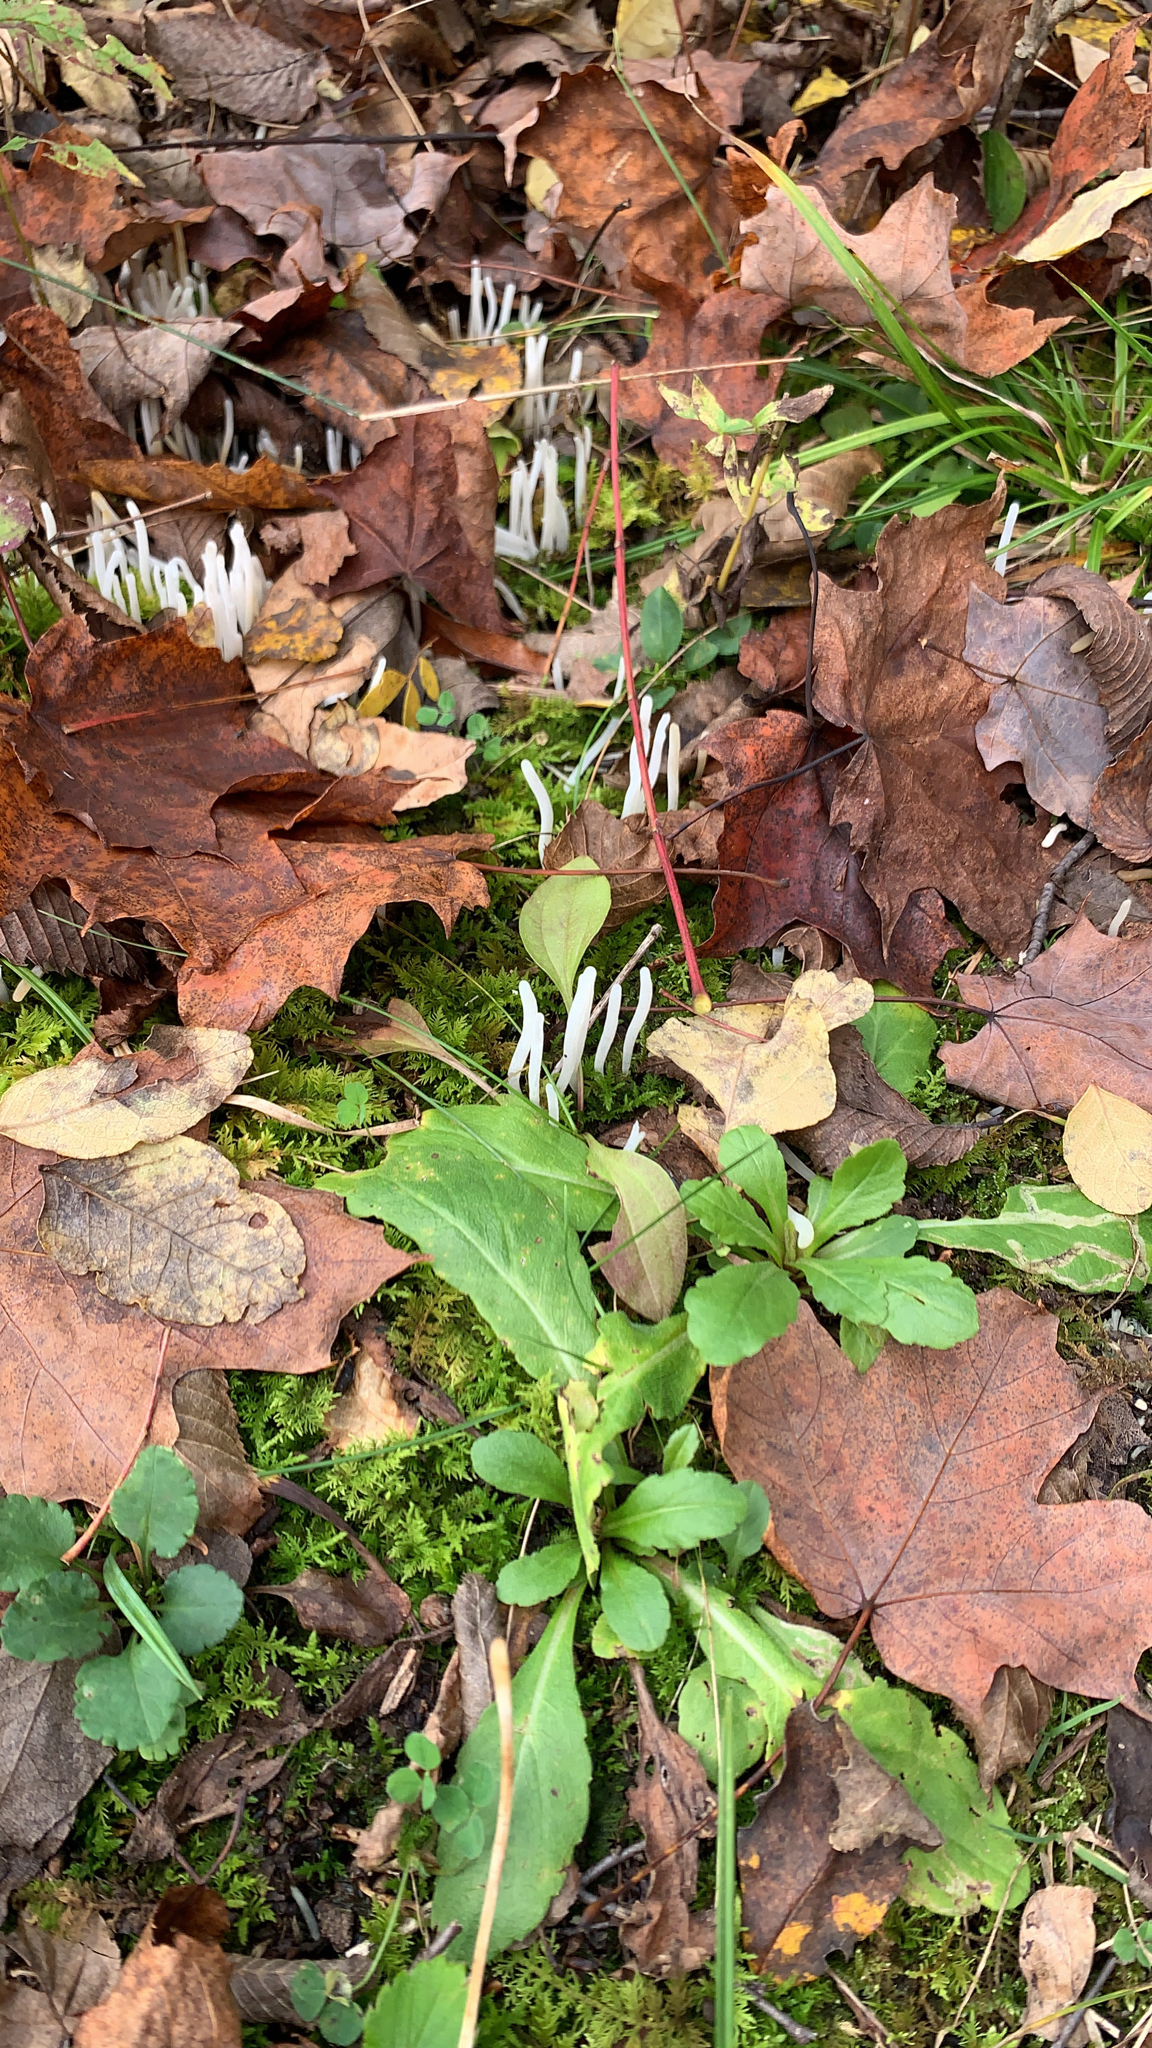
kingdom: Fungi
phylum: Basidiomycota
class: Agaricomycetes
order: Agaricales
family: Clavariaceae
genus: Clavaria
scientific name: Clavaria fragilis
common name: White spindles
